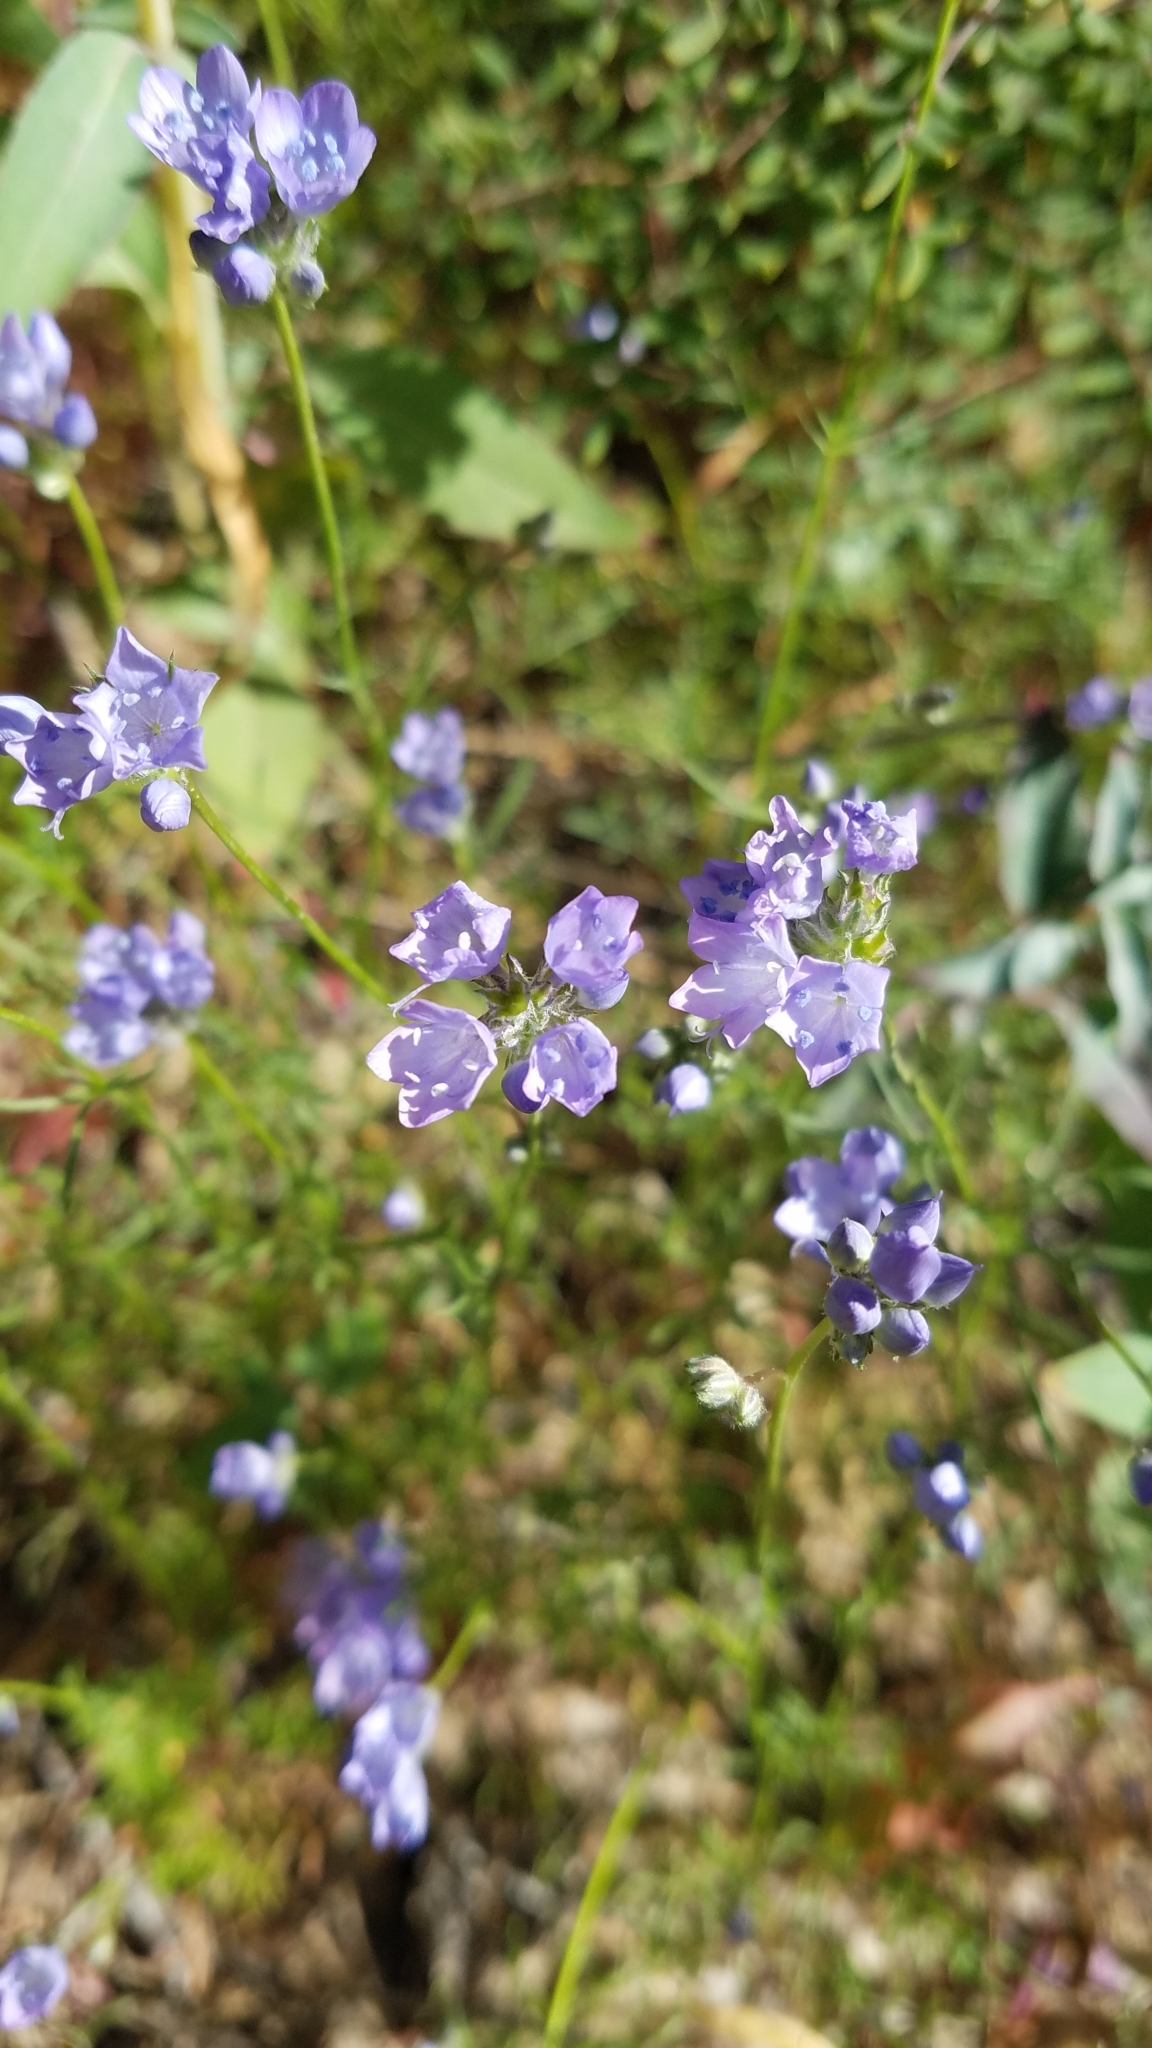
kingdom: Plantae
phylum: Tracheophyta
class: Magnoliopsida
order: Ericales
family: Polemoniaceae
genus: Gilia
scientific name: Gilia achilleifolia
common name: California gily-flower
